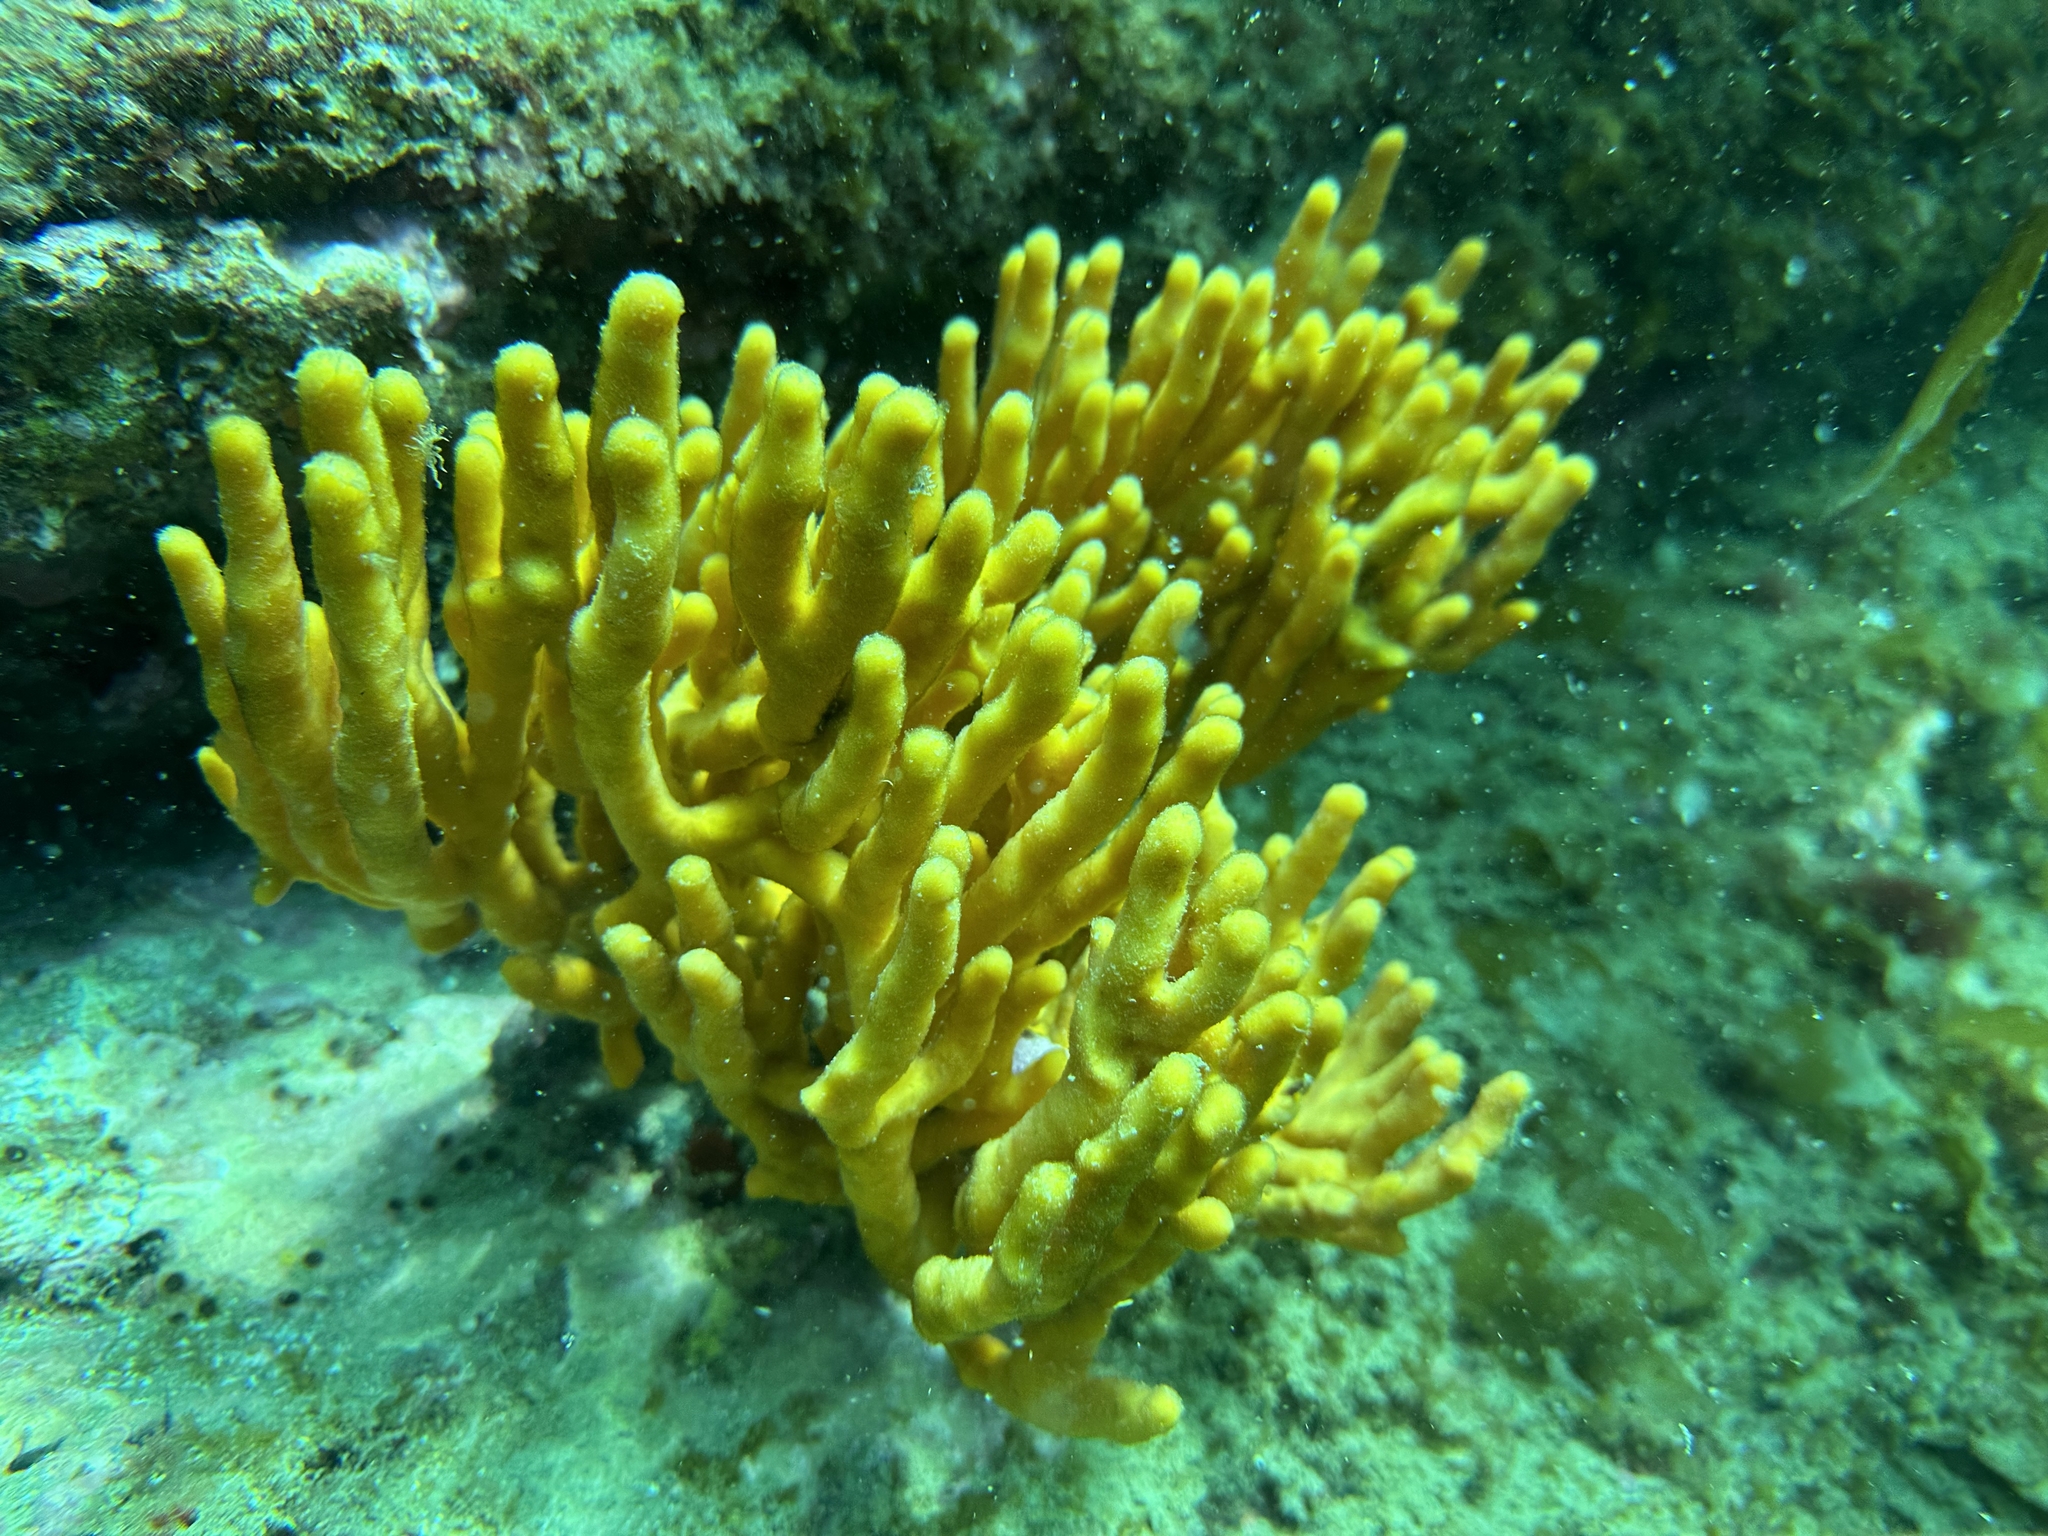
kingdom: Animalia
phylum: Porifera
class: Demospongiae
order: Axinellida
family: Raspailiidae
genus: Raspailia
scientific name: Raspailia topsenti
